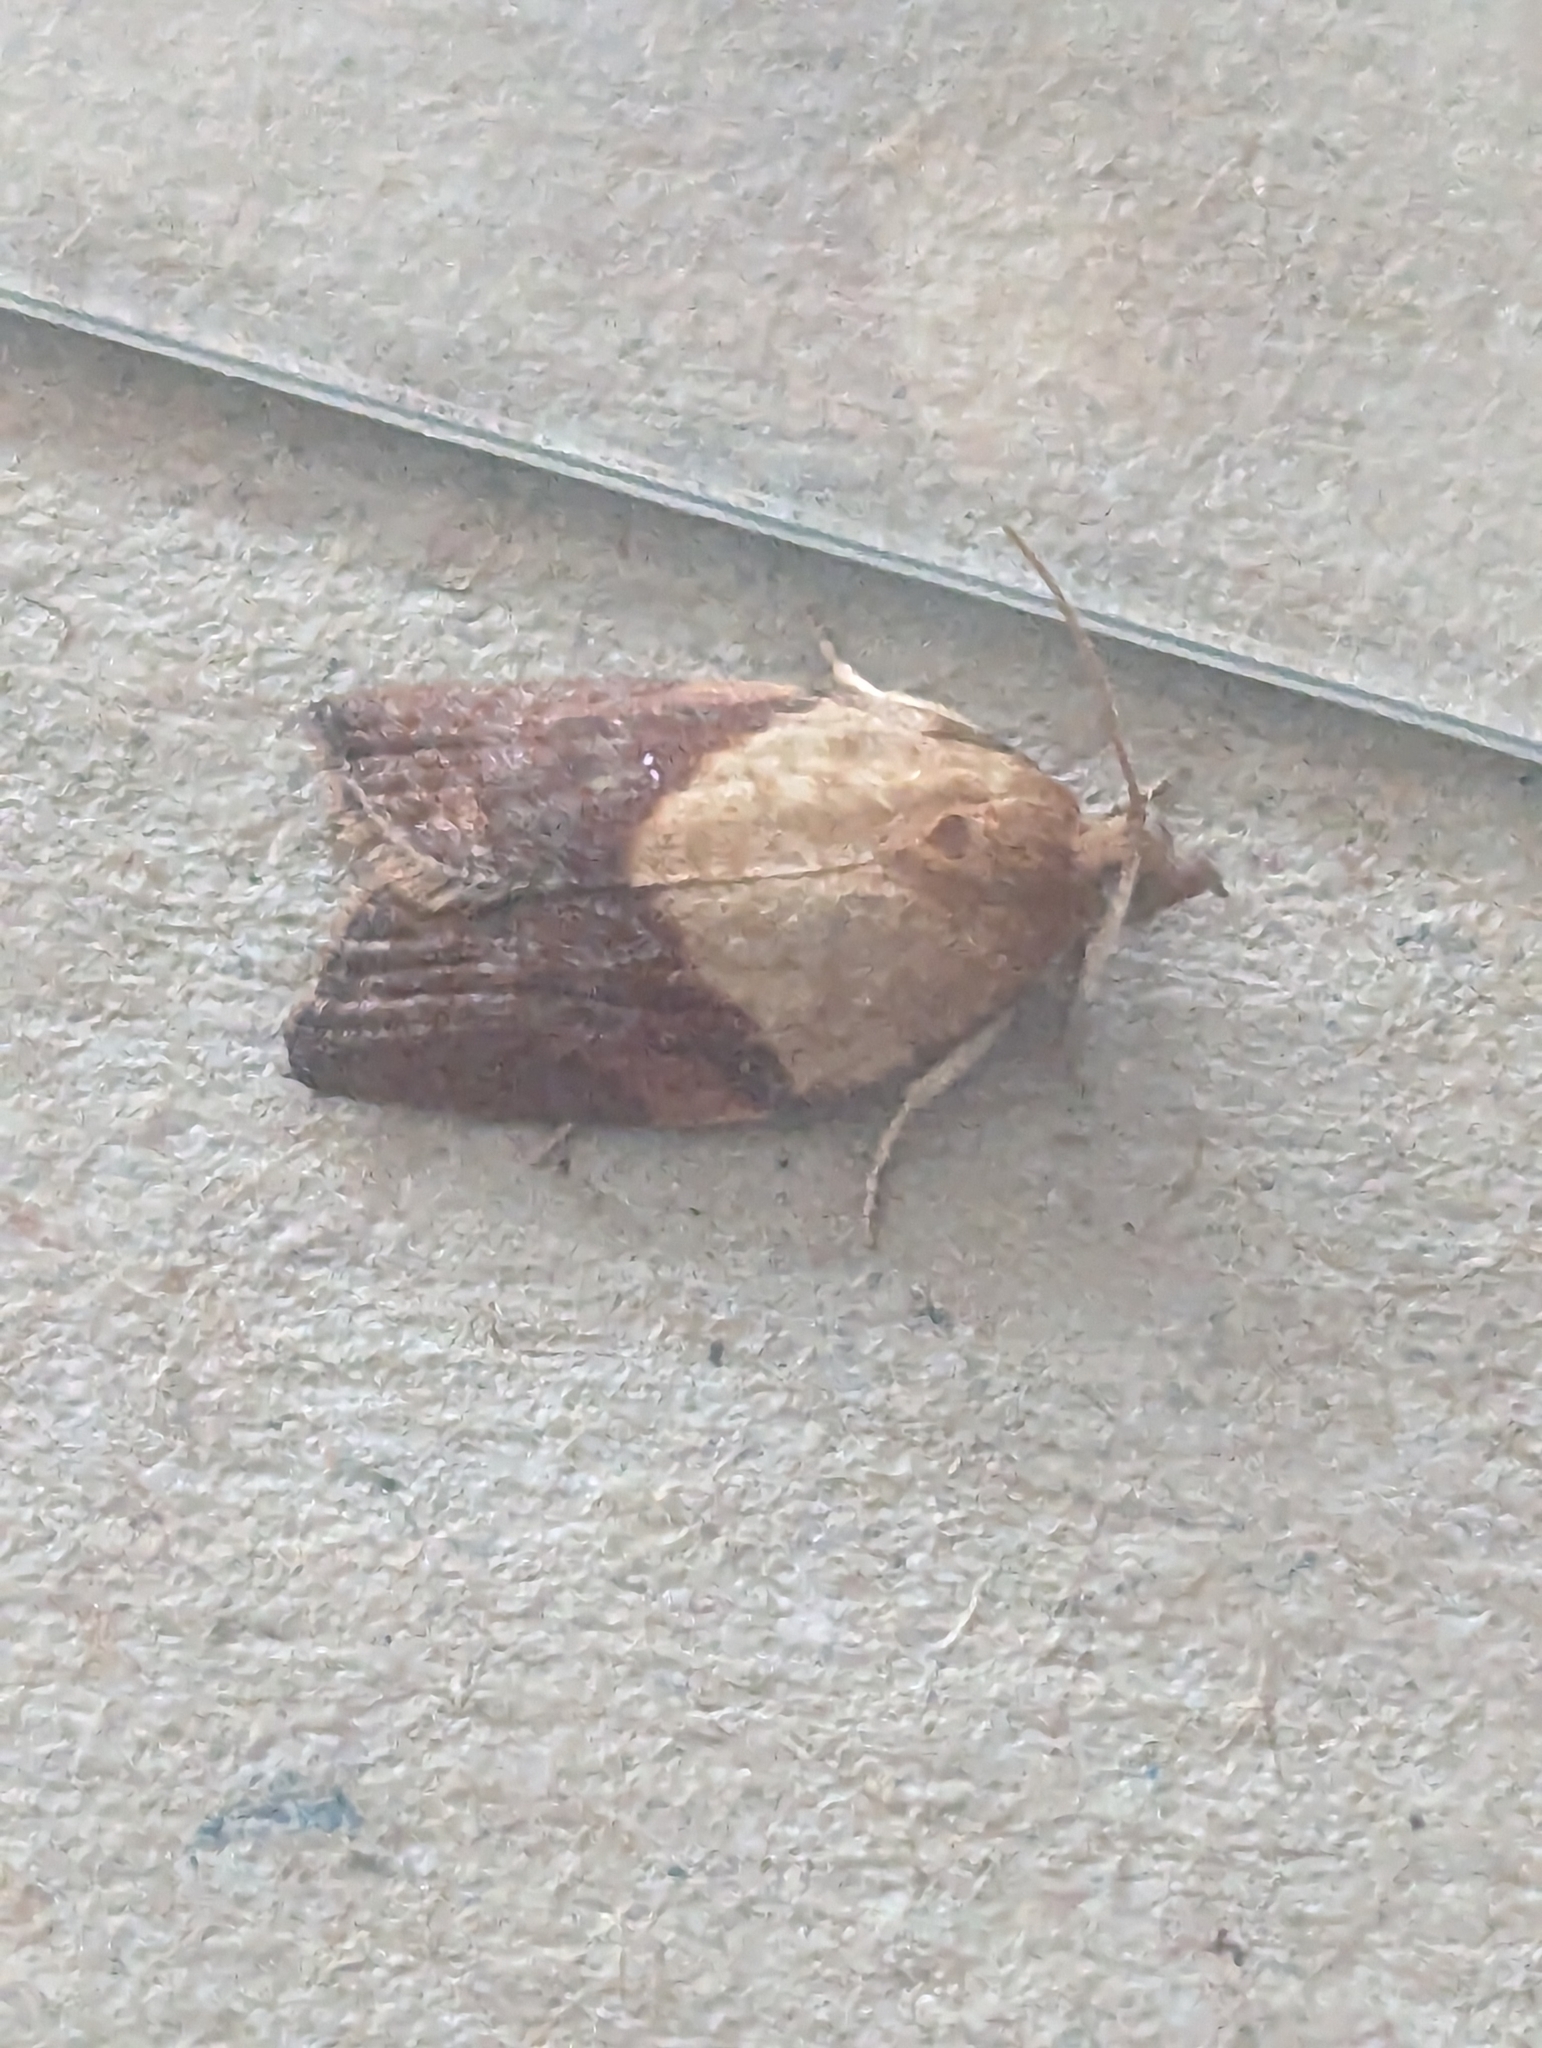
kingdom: Animalia
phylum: Arthropoda
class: Insecta
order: Lepidoptera
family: Tortricidae
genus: Epiphyas
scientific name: Epiphyas postvittana
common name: Light brown apple moth
